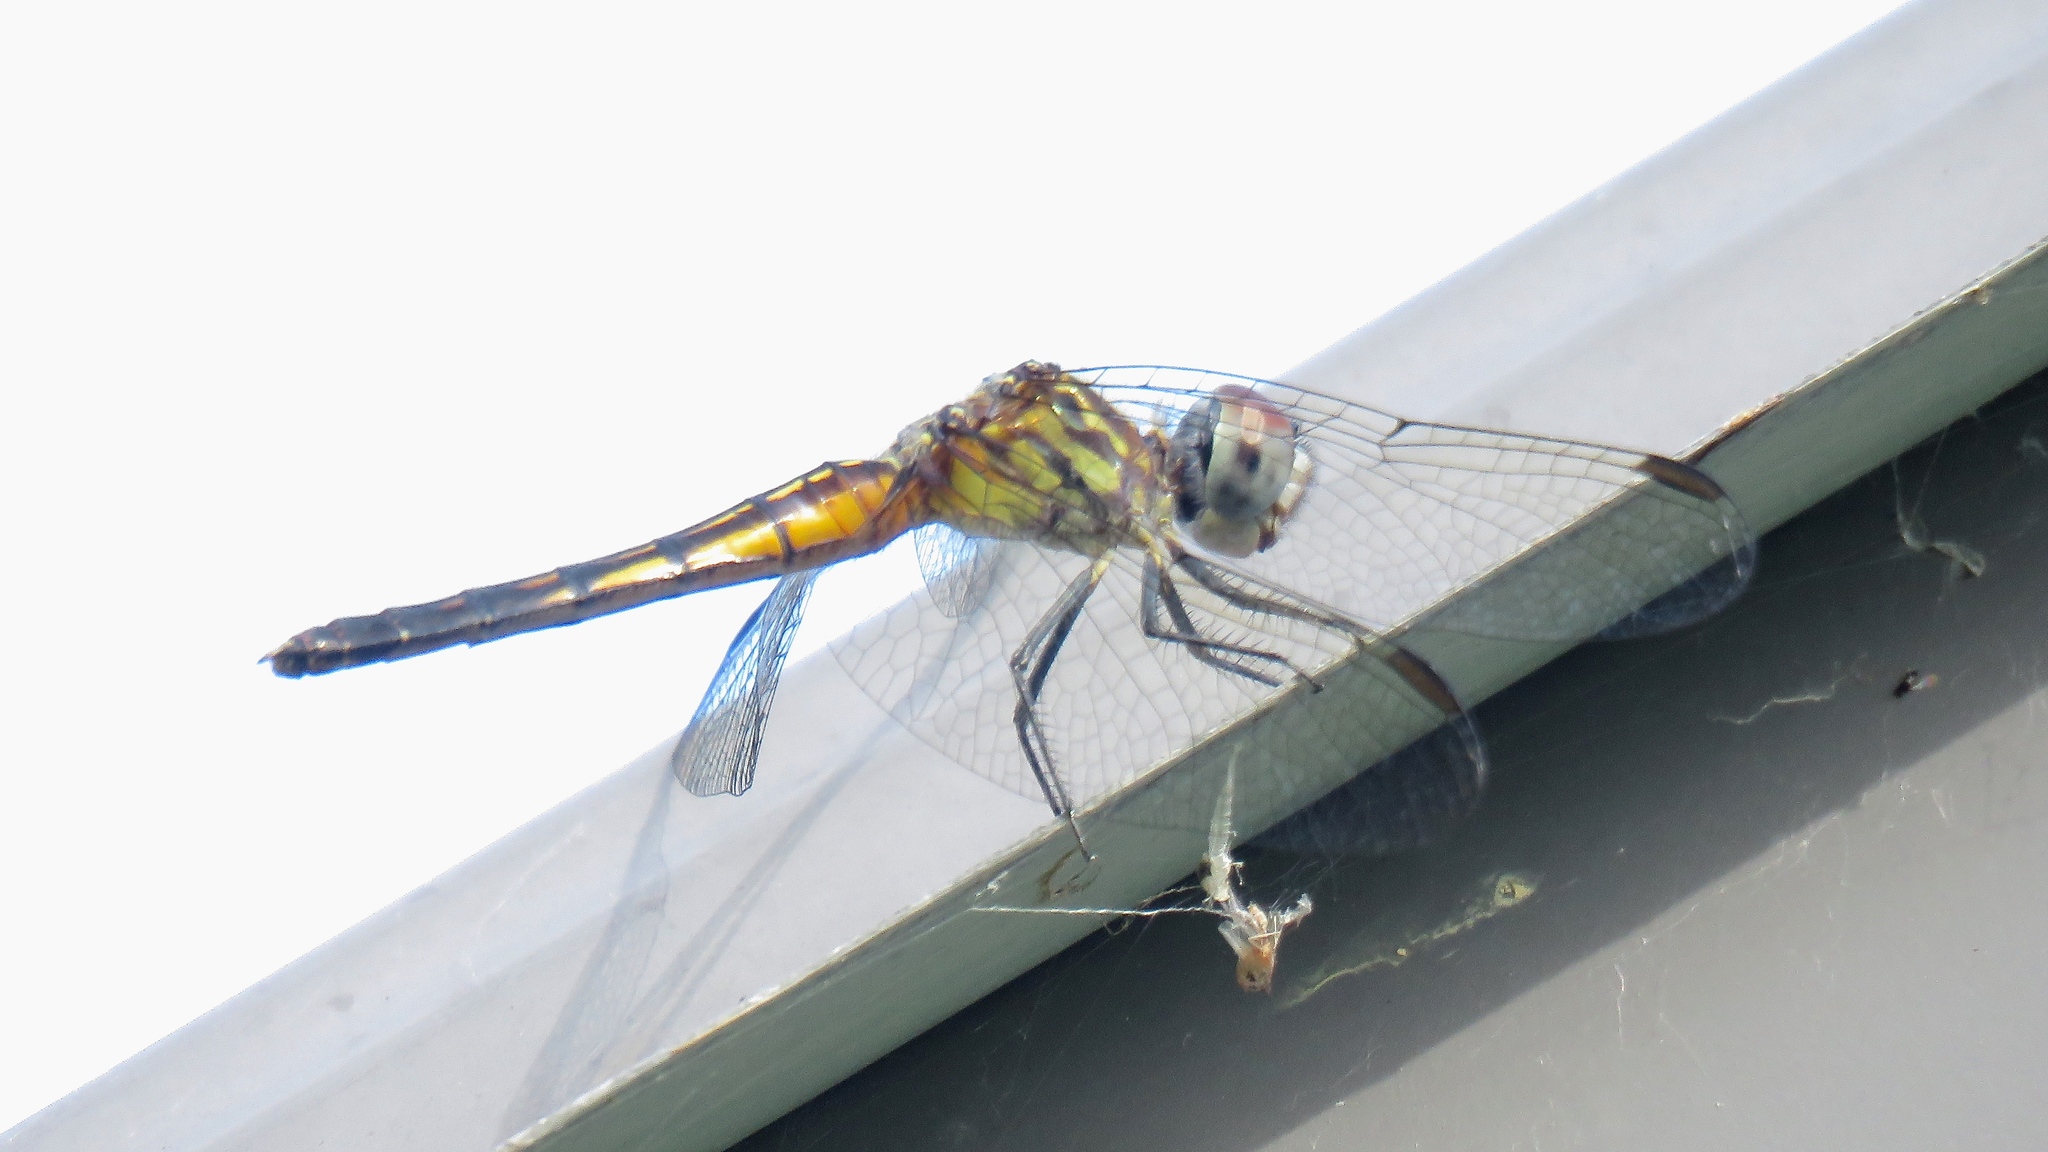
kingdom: Animalia
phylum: Arthropoda
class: Insecta
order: Odonata
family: Libellulidae
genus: Pachydiplax
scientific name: Pachydiplax longipennis
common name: Blue dasher
